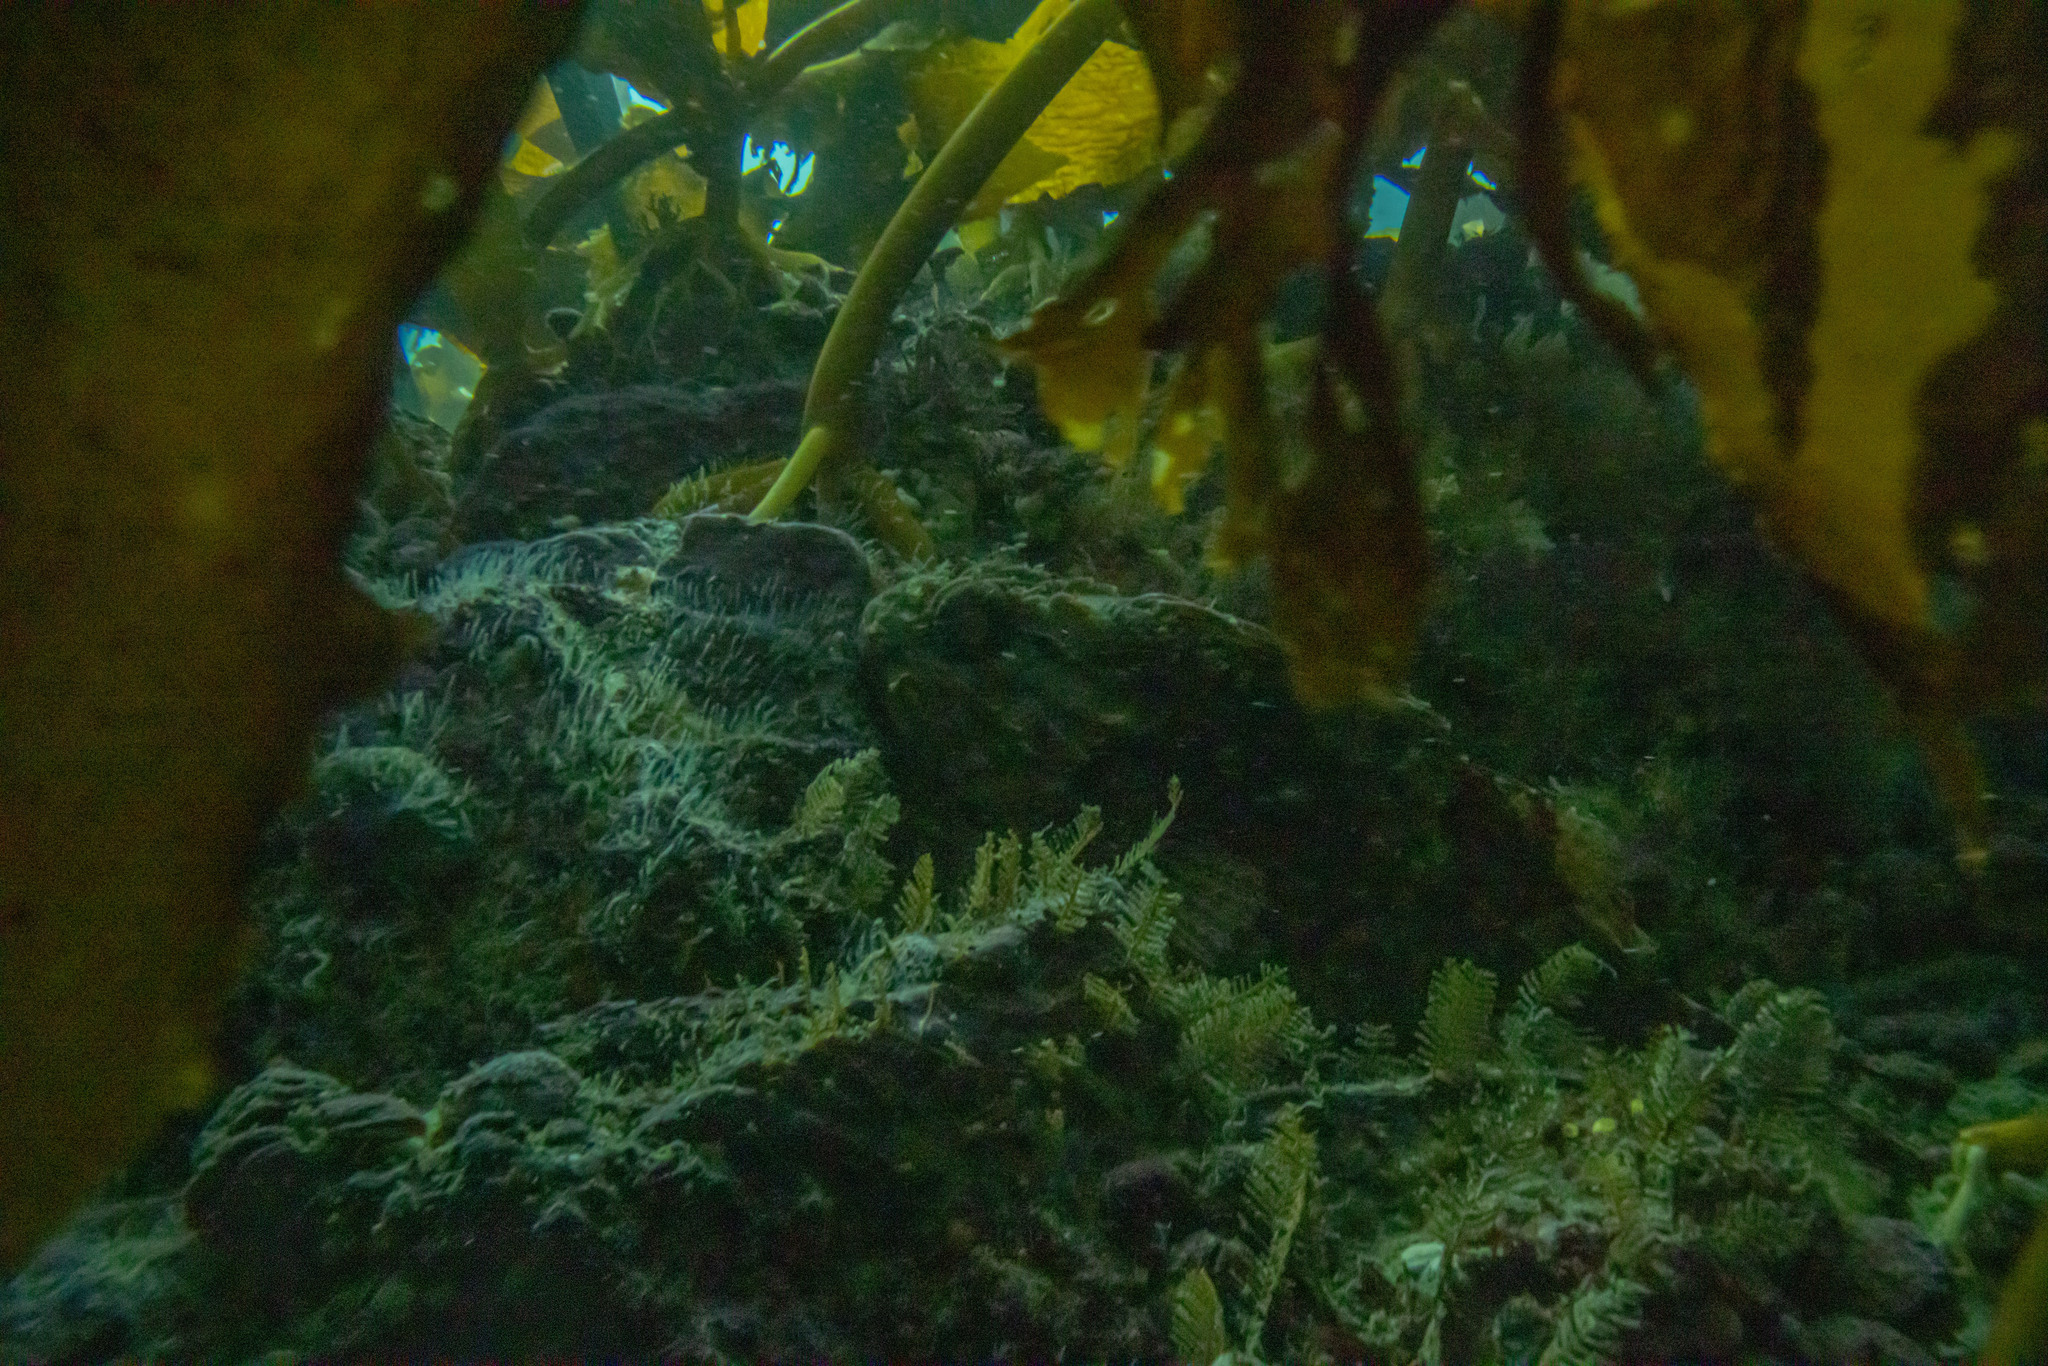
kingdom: Animalia
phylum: Chordata
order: Scorpaeniformes
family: Scorpaenidae
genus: Scorpaena
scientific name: Scorpaena papillosa
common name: Chained scorpionfish
